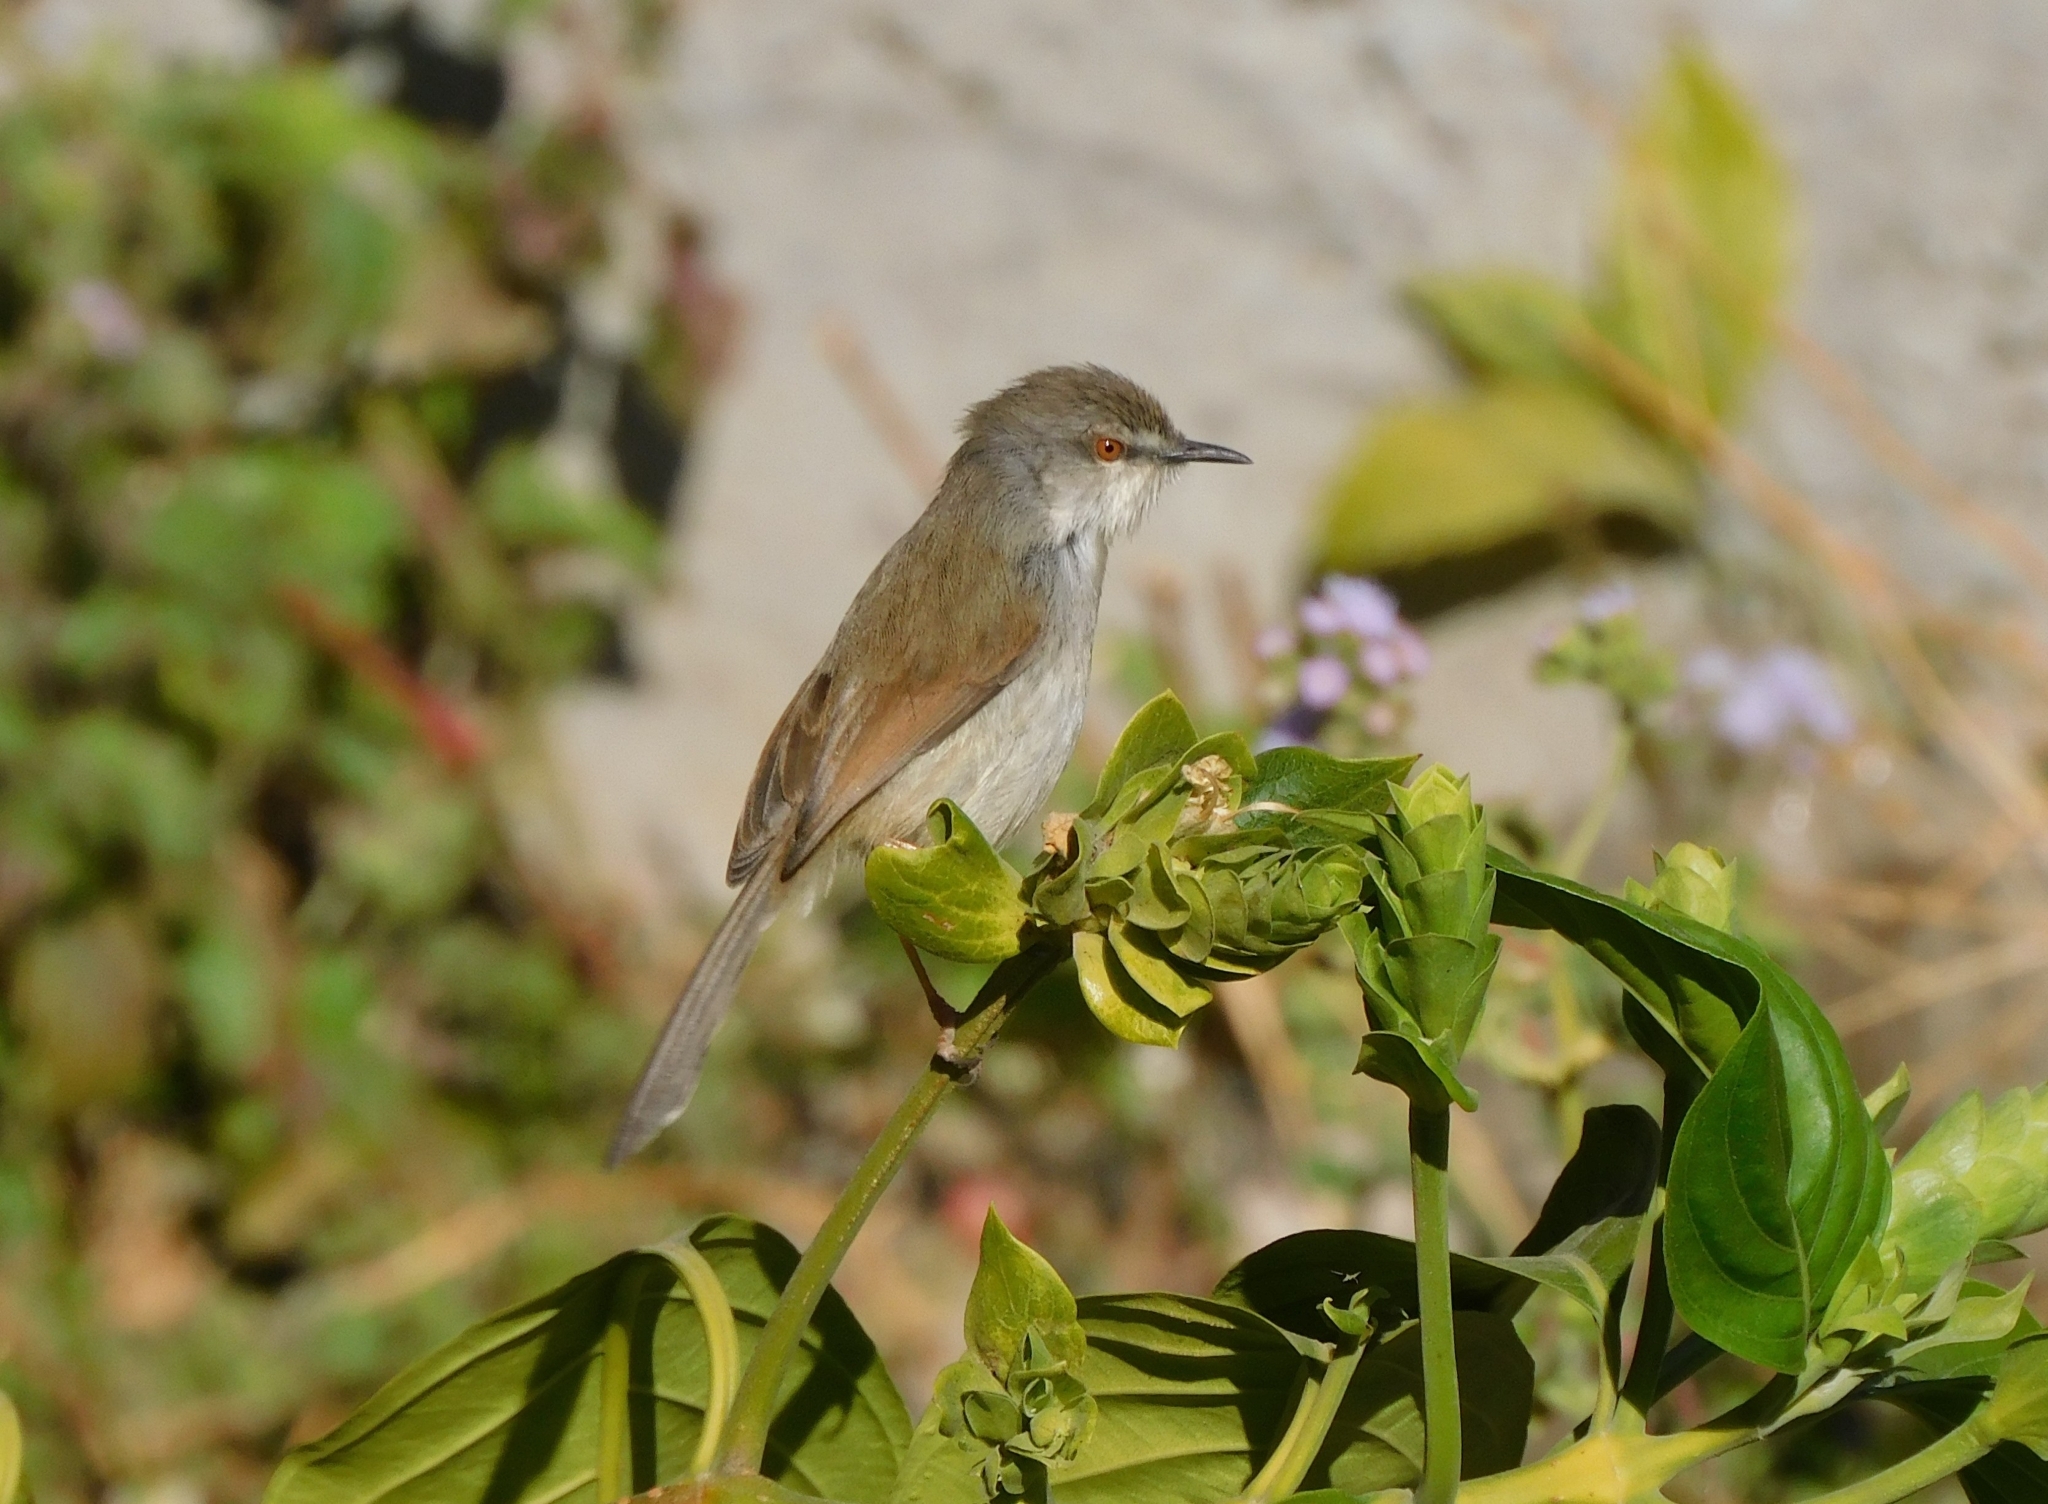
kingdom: Animalia
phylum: Chordata
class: Aves
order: Passeriformes
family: Cisticolidae
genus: Prinia
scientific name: Prinia hodgsonii
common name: Grey-breasted prinia
